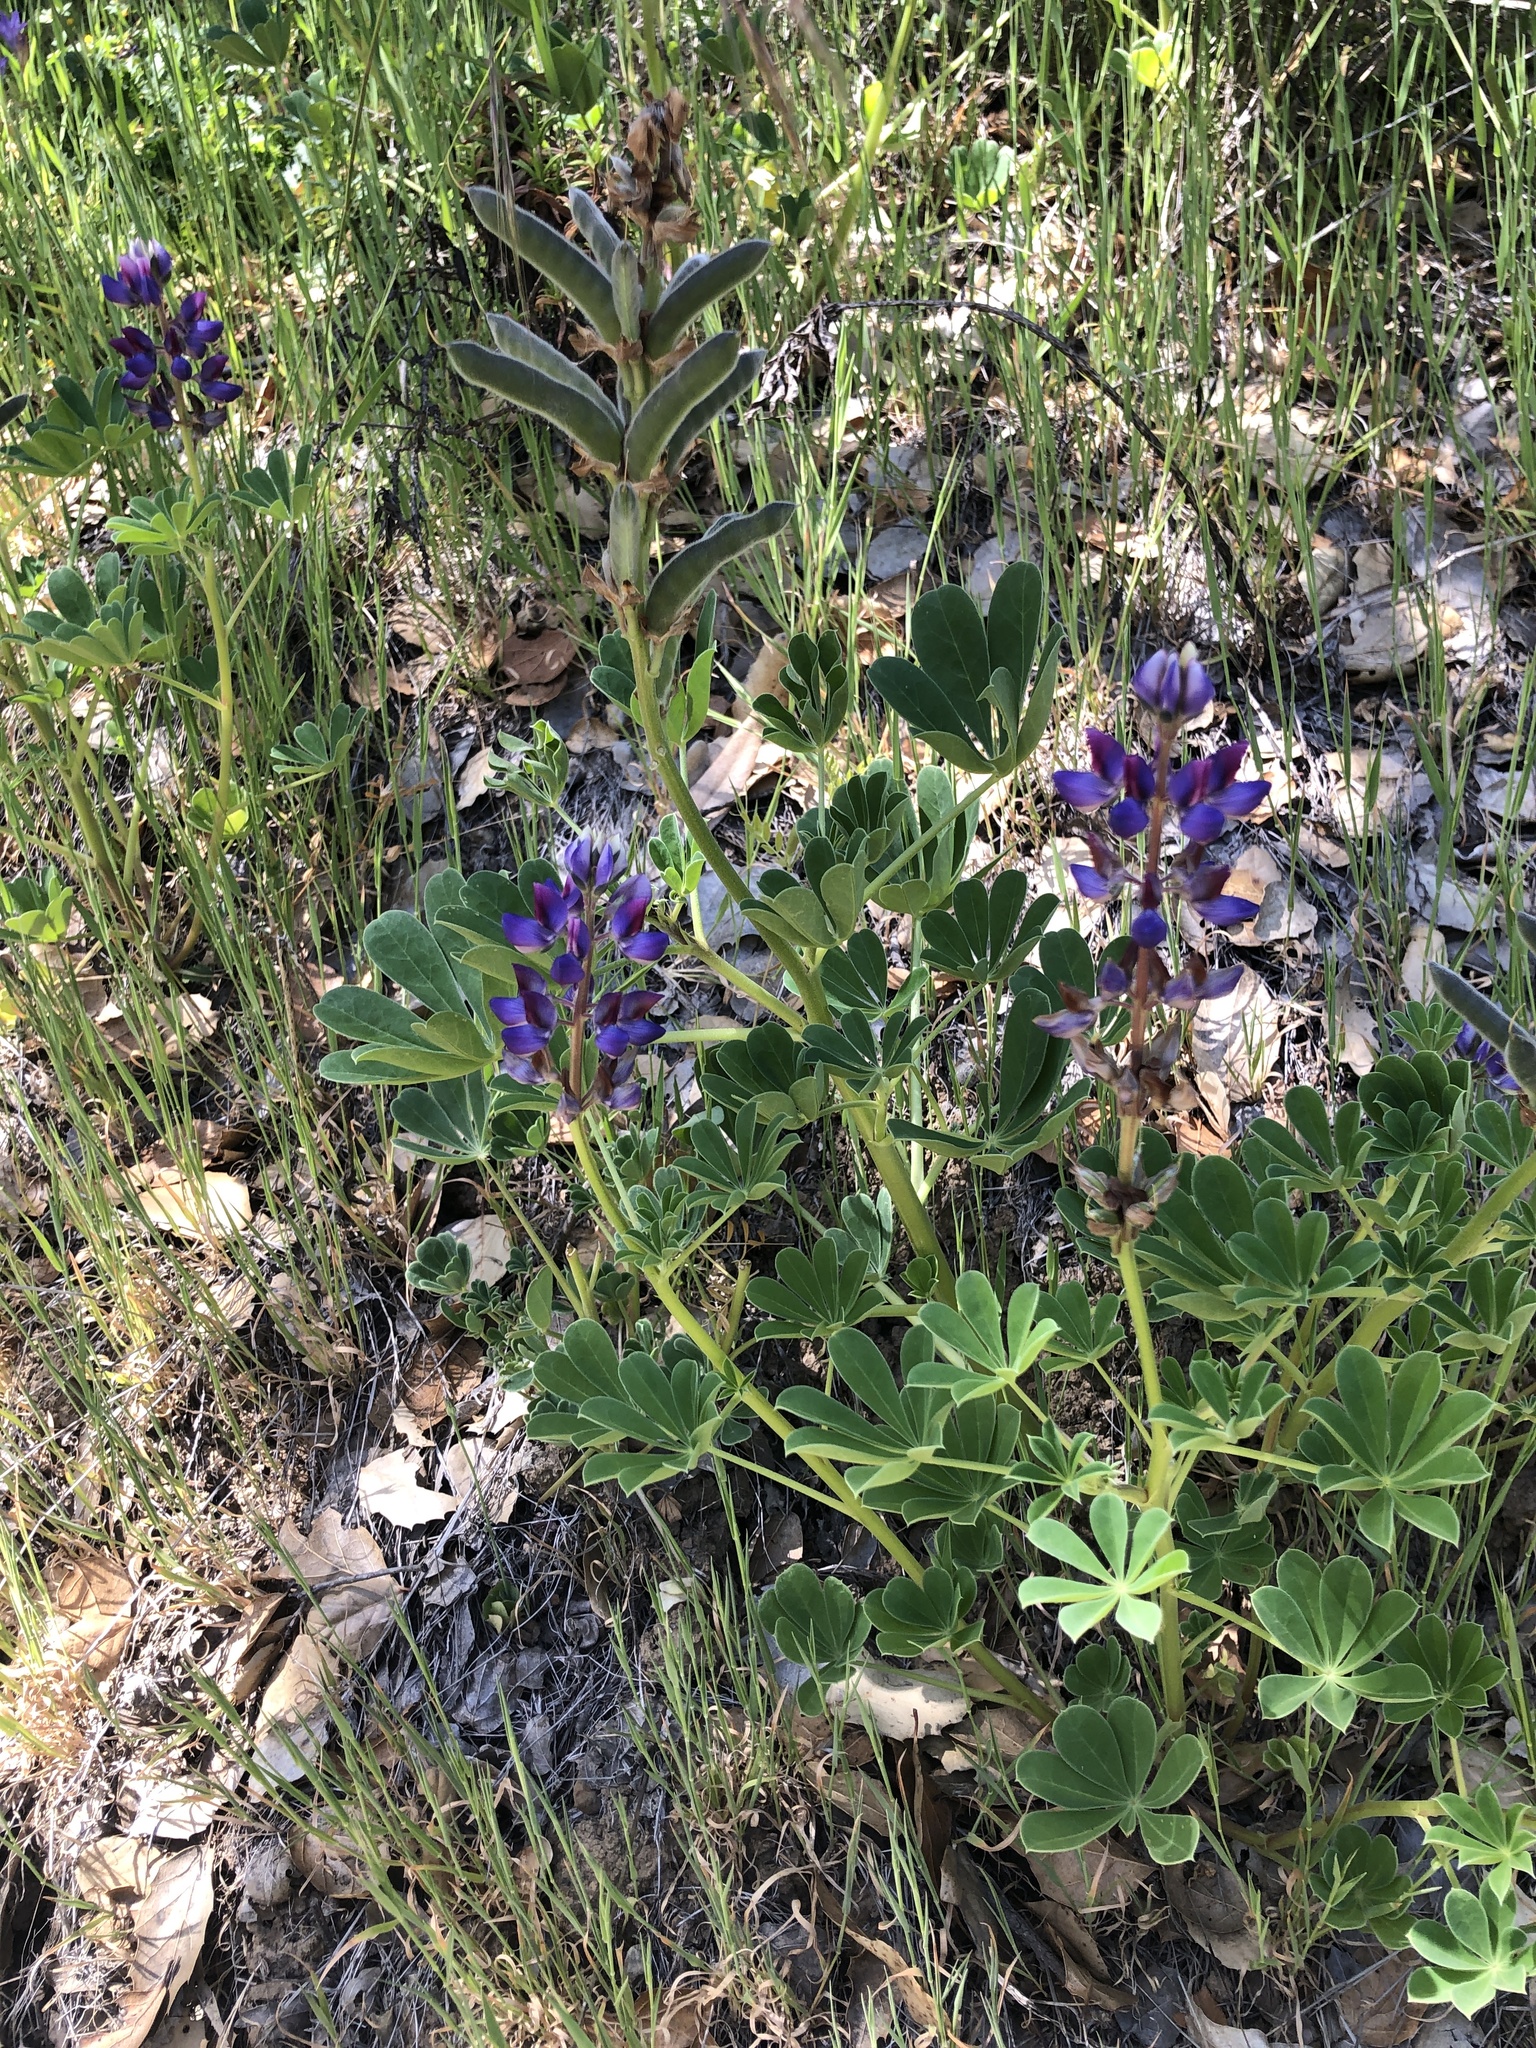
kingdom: Plantae
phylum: Tracheophyta
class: Magnoliopsida
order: Fabales
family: Fabaceae
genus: Lupinus
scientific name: Lupinus succulentus
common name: Arroyo lupine
